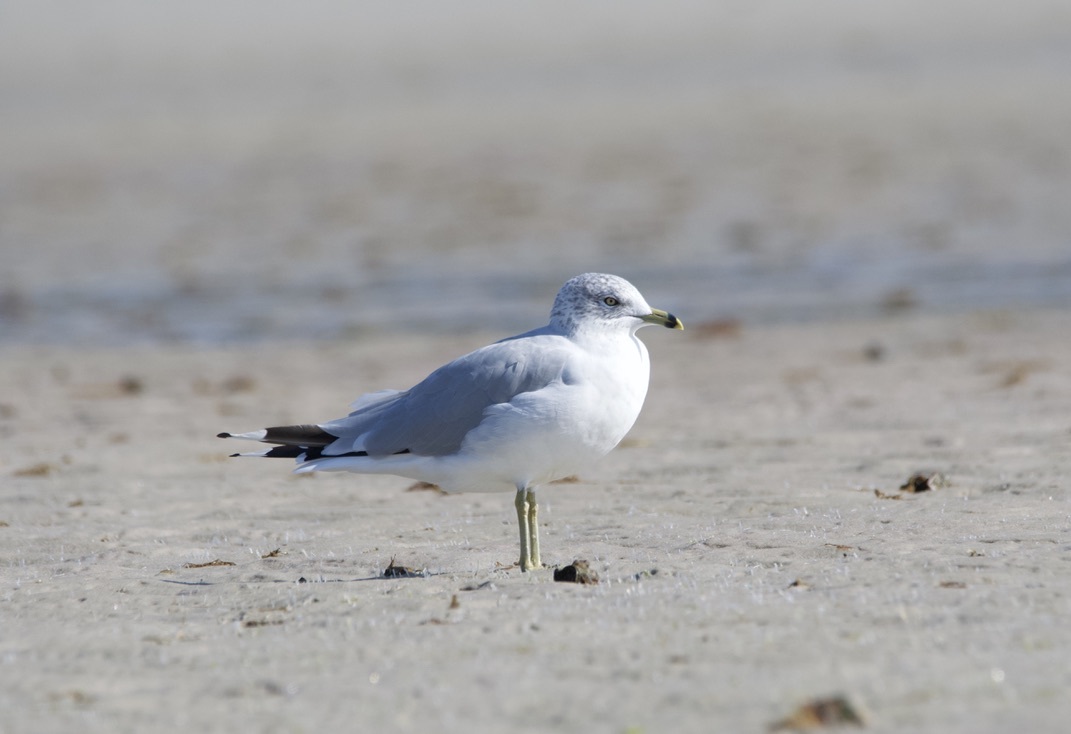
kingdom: Animalia
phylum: Chordata
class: Aves
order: Charadriiformes
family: Laridae
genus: Larus
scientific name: Larus delawarensis
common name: Ring-billed gull
